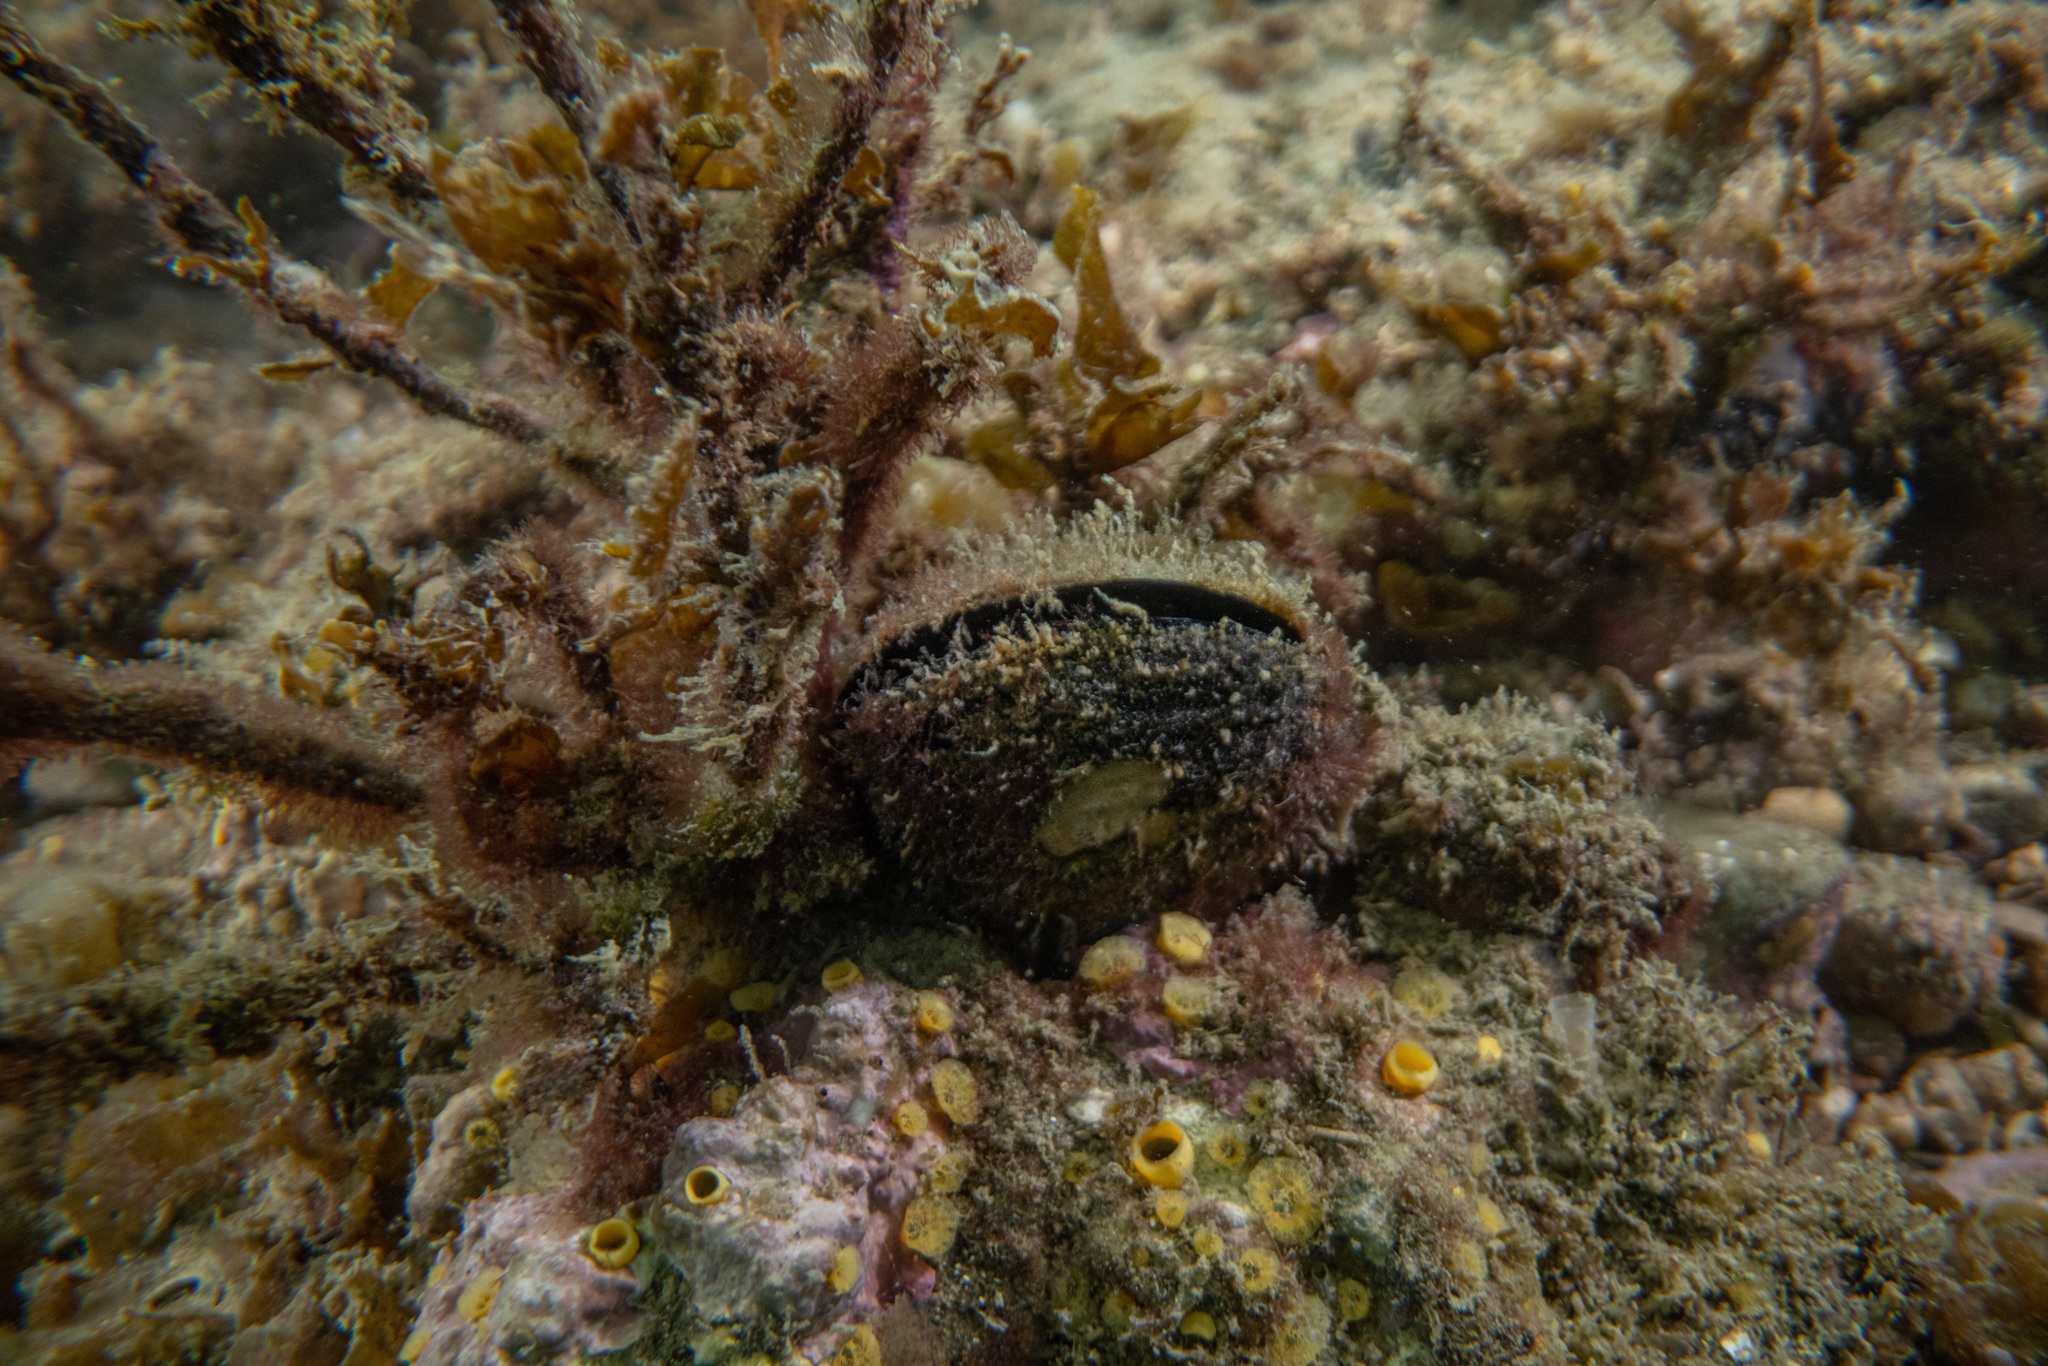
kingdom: Animalia
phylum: Mollusca
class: Bivalvia
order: Mytilida
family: Mytilidae
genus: Perna
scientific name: Perna canaliculus
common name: New zealand greenshelltm
